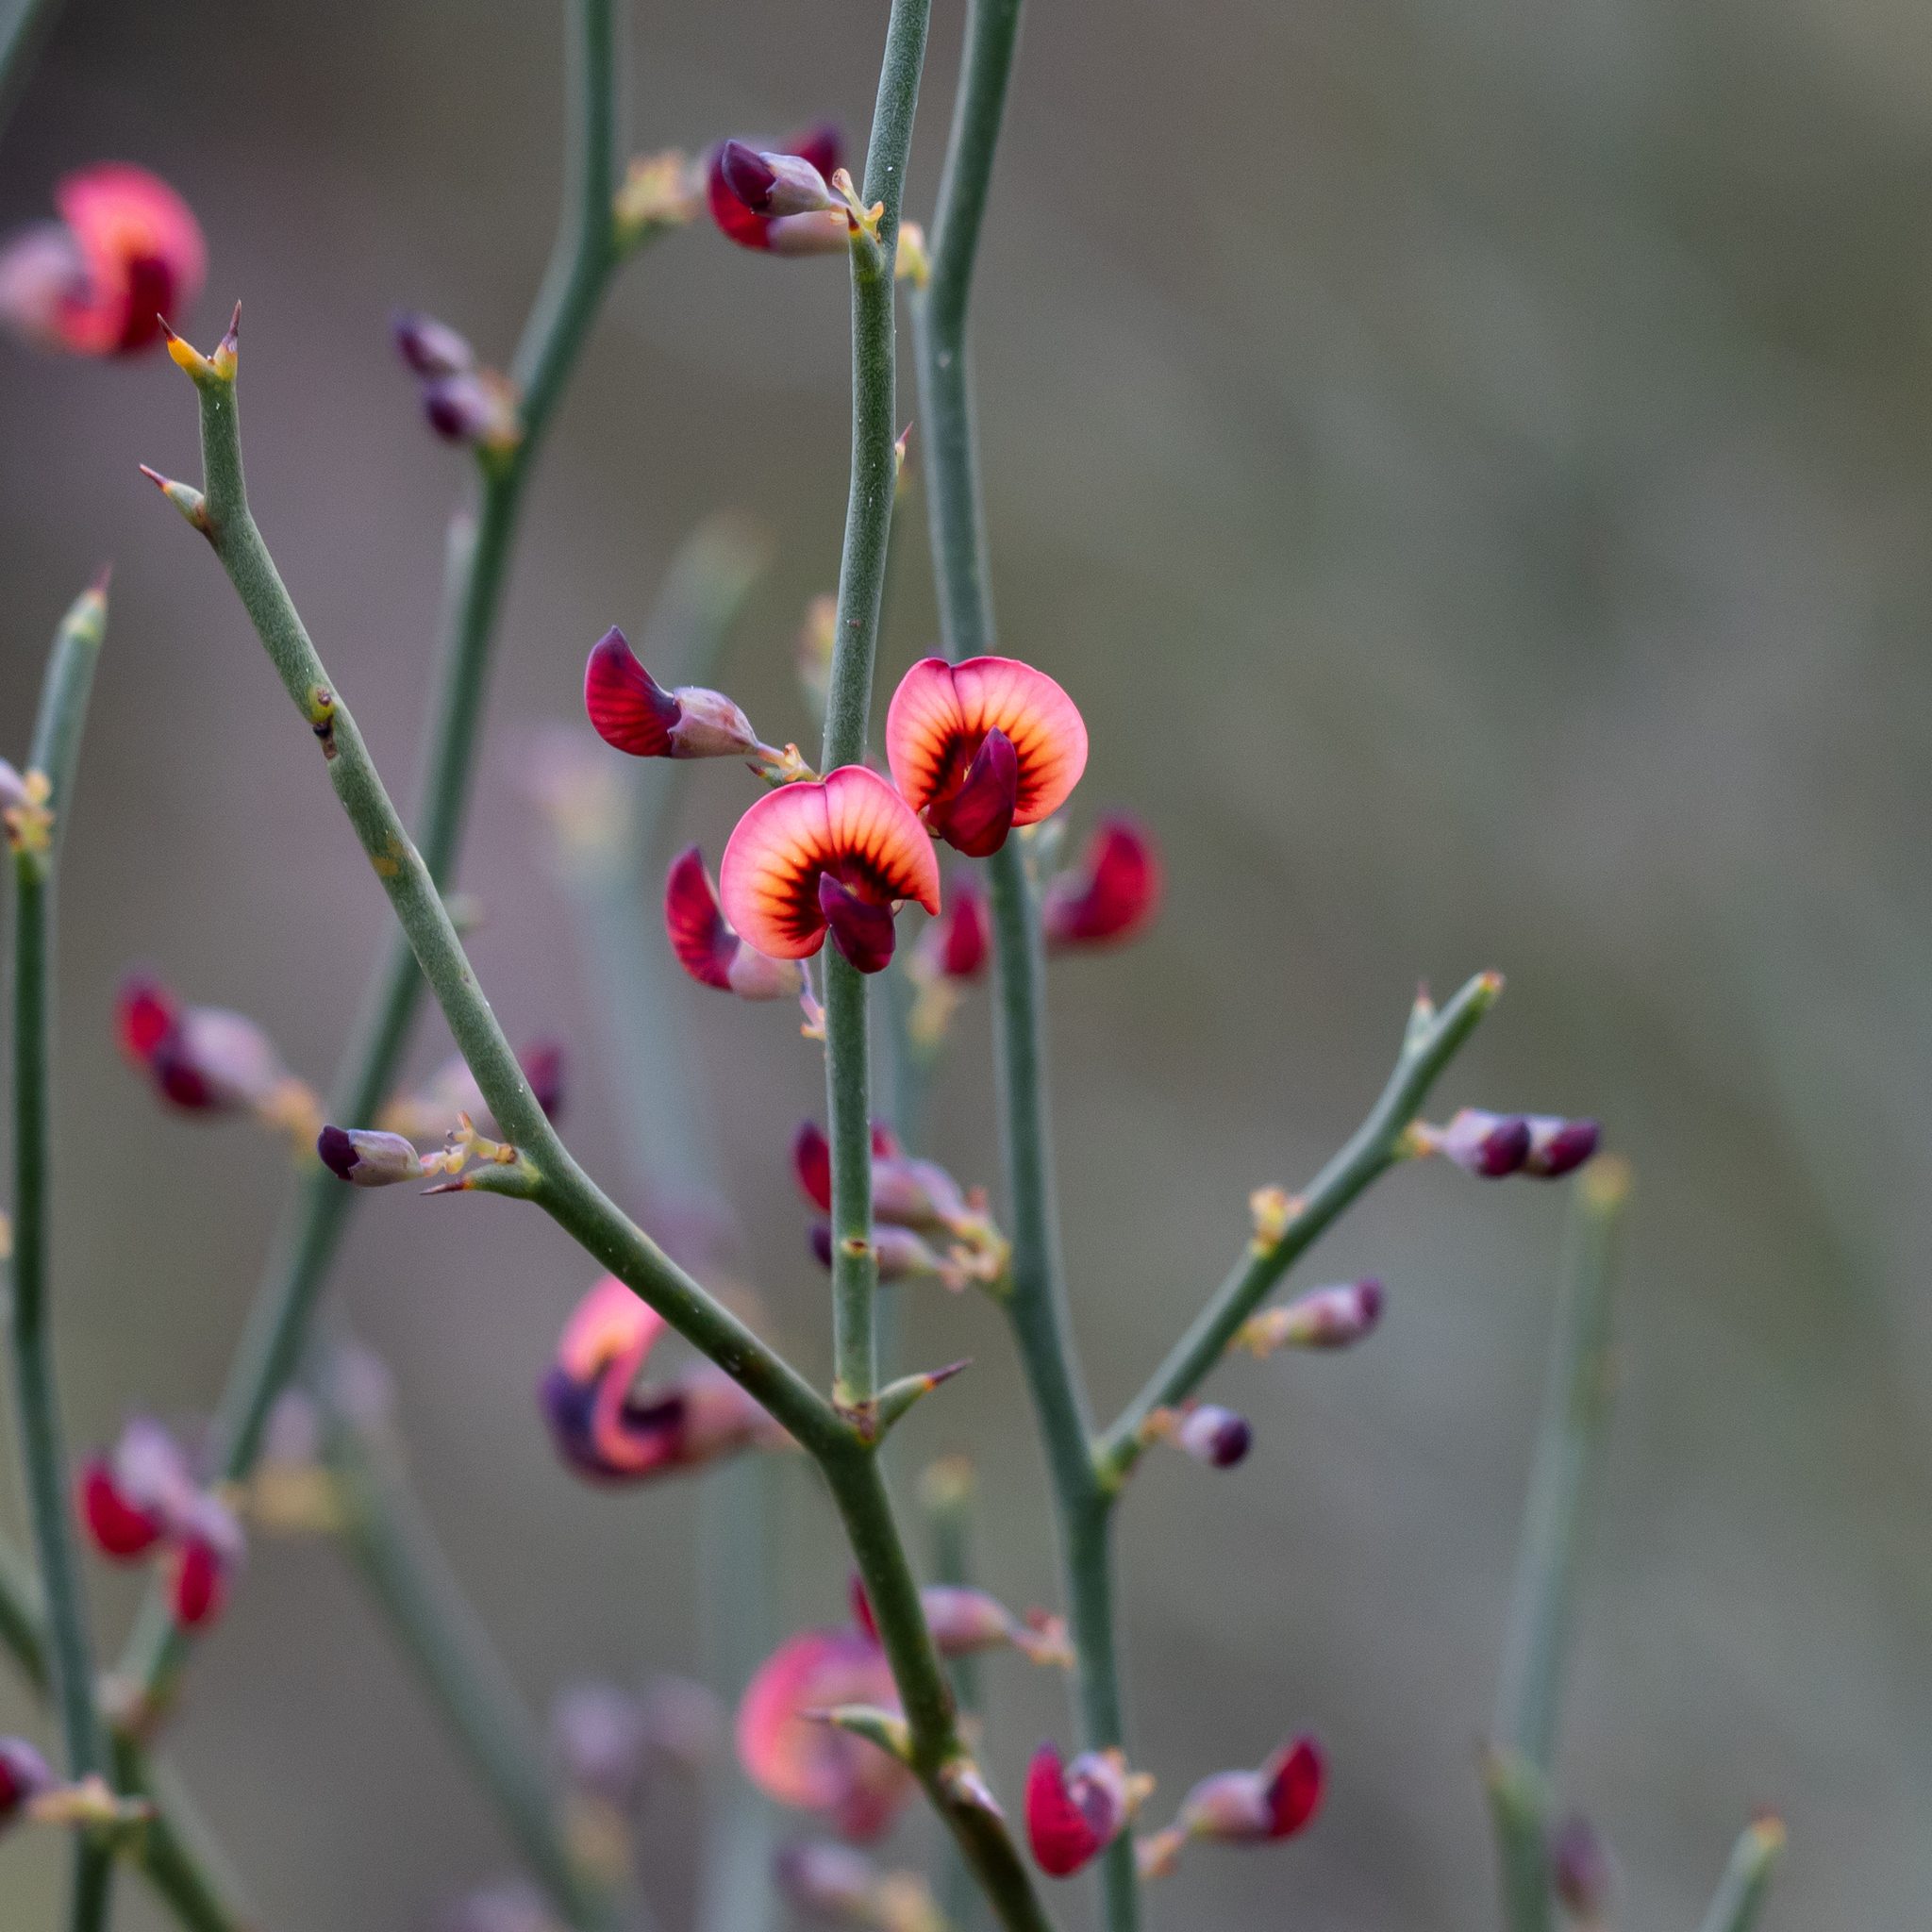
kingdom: Plantae
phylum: Tracheophyta
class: Magnoliopsida
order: Fabales
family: Fabaceae
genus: Daviesia
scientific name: Daviesia brevifolia
